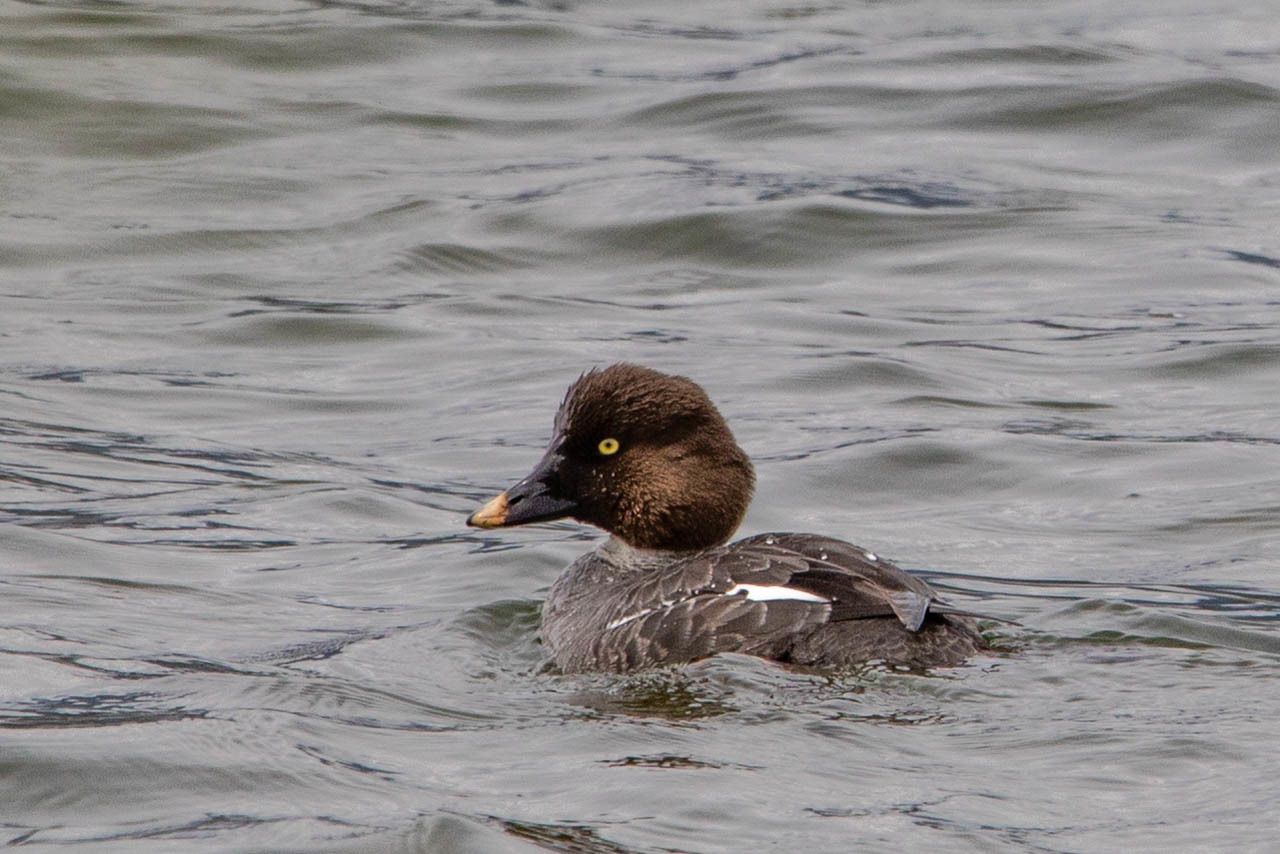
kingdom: Animalia
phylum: Chordata
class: Aves
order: Anseriformes
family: Anatidae
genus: Bucephala
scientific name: Bucephala clangula
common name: Common goldeneye
